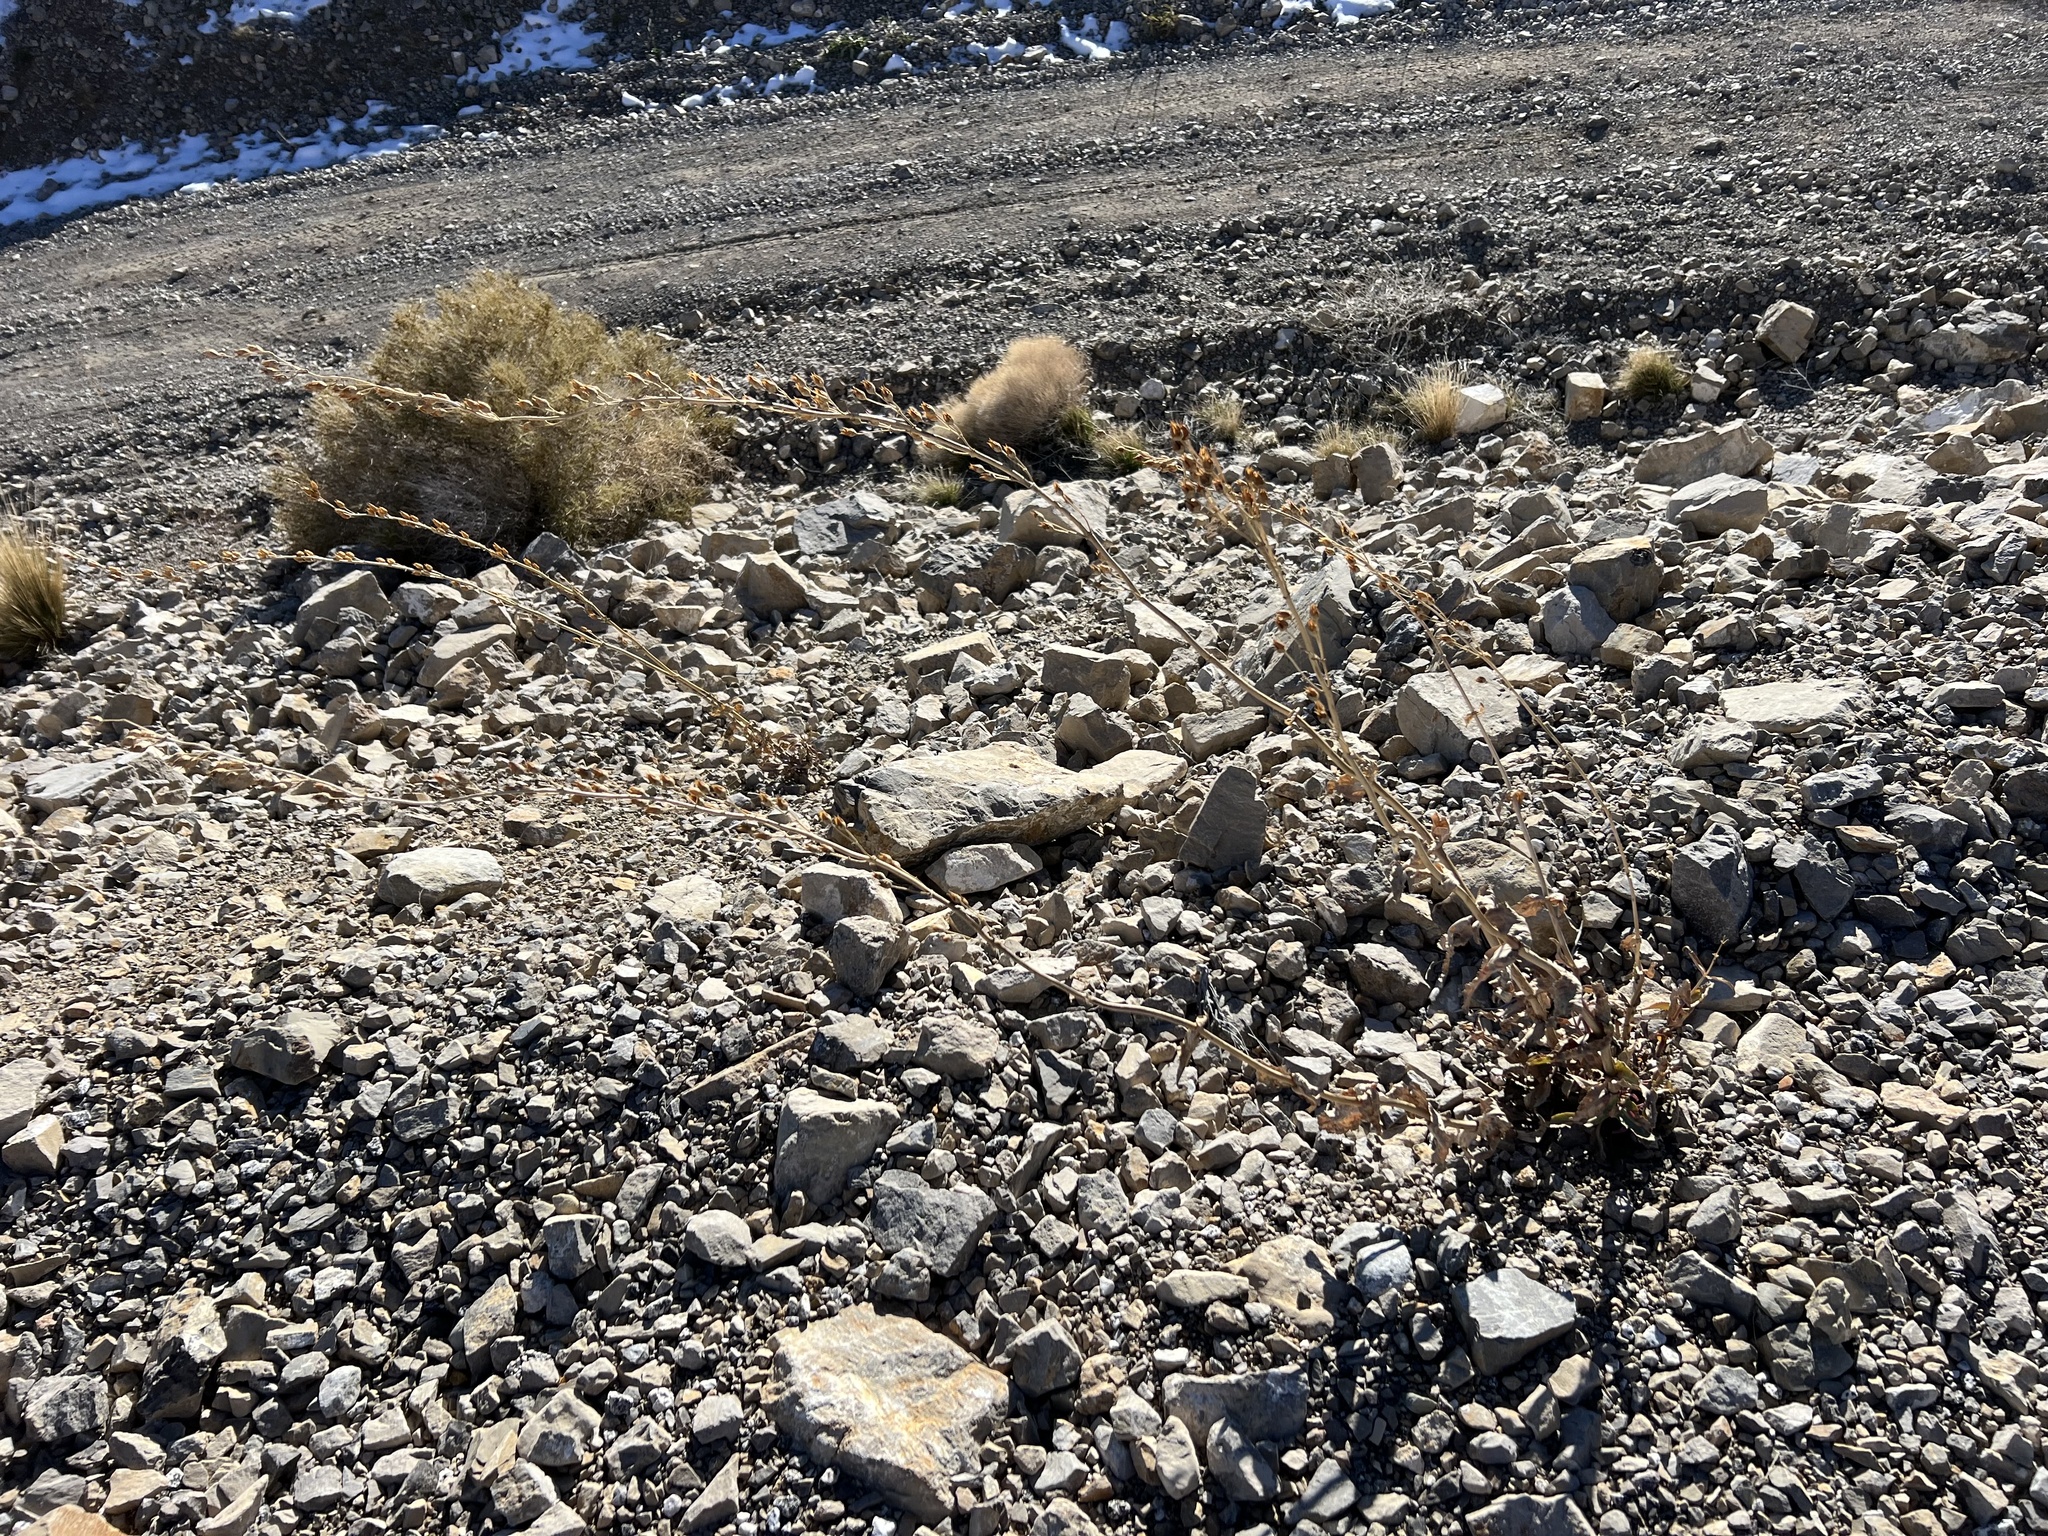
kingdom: Plantae
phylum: Tracheophyta
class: Magnoliopsida
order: Lamiales
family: Plantaginaceae
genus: Penstemon
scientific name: Penstemon palmeri
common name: Palmer penstemon
